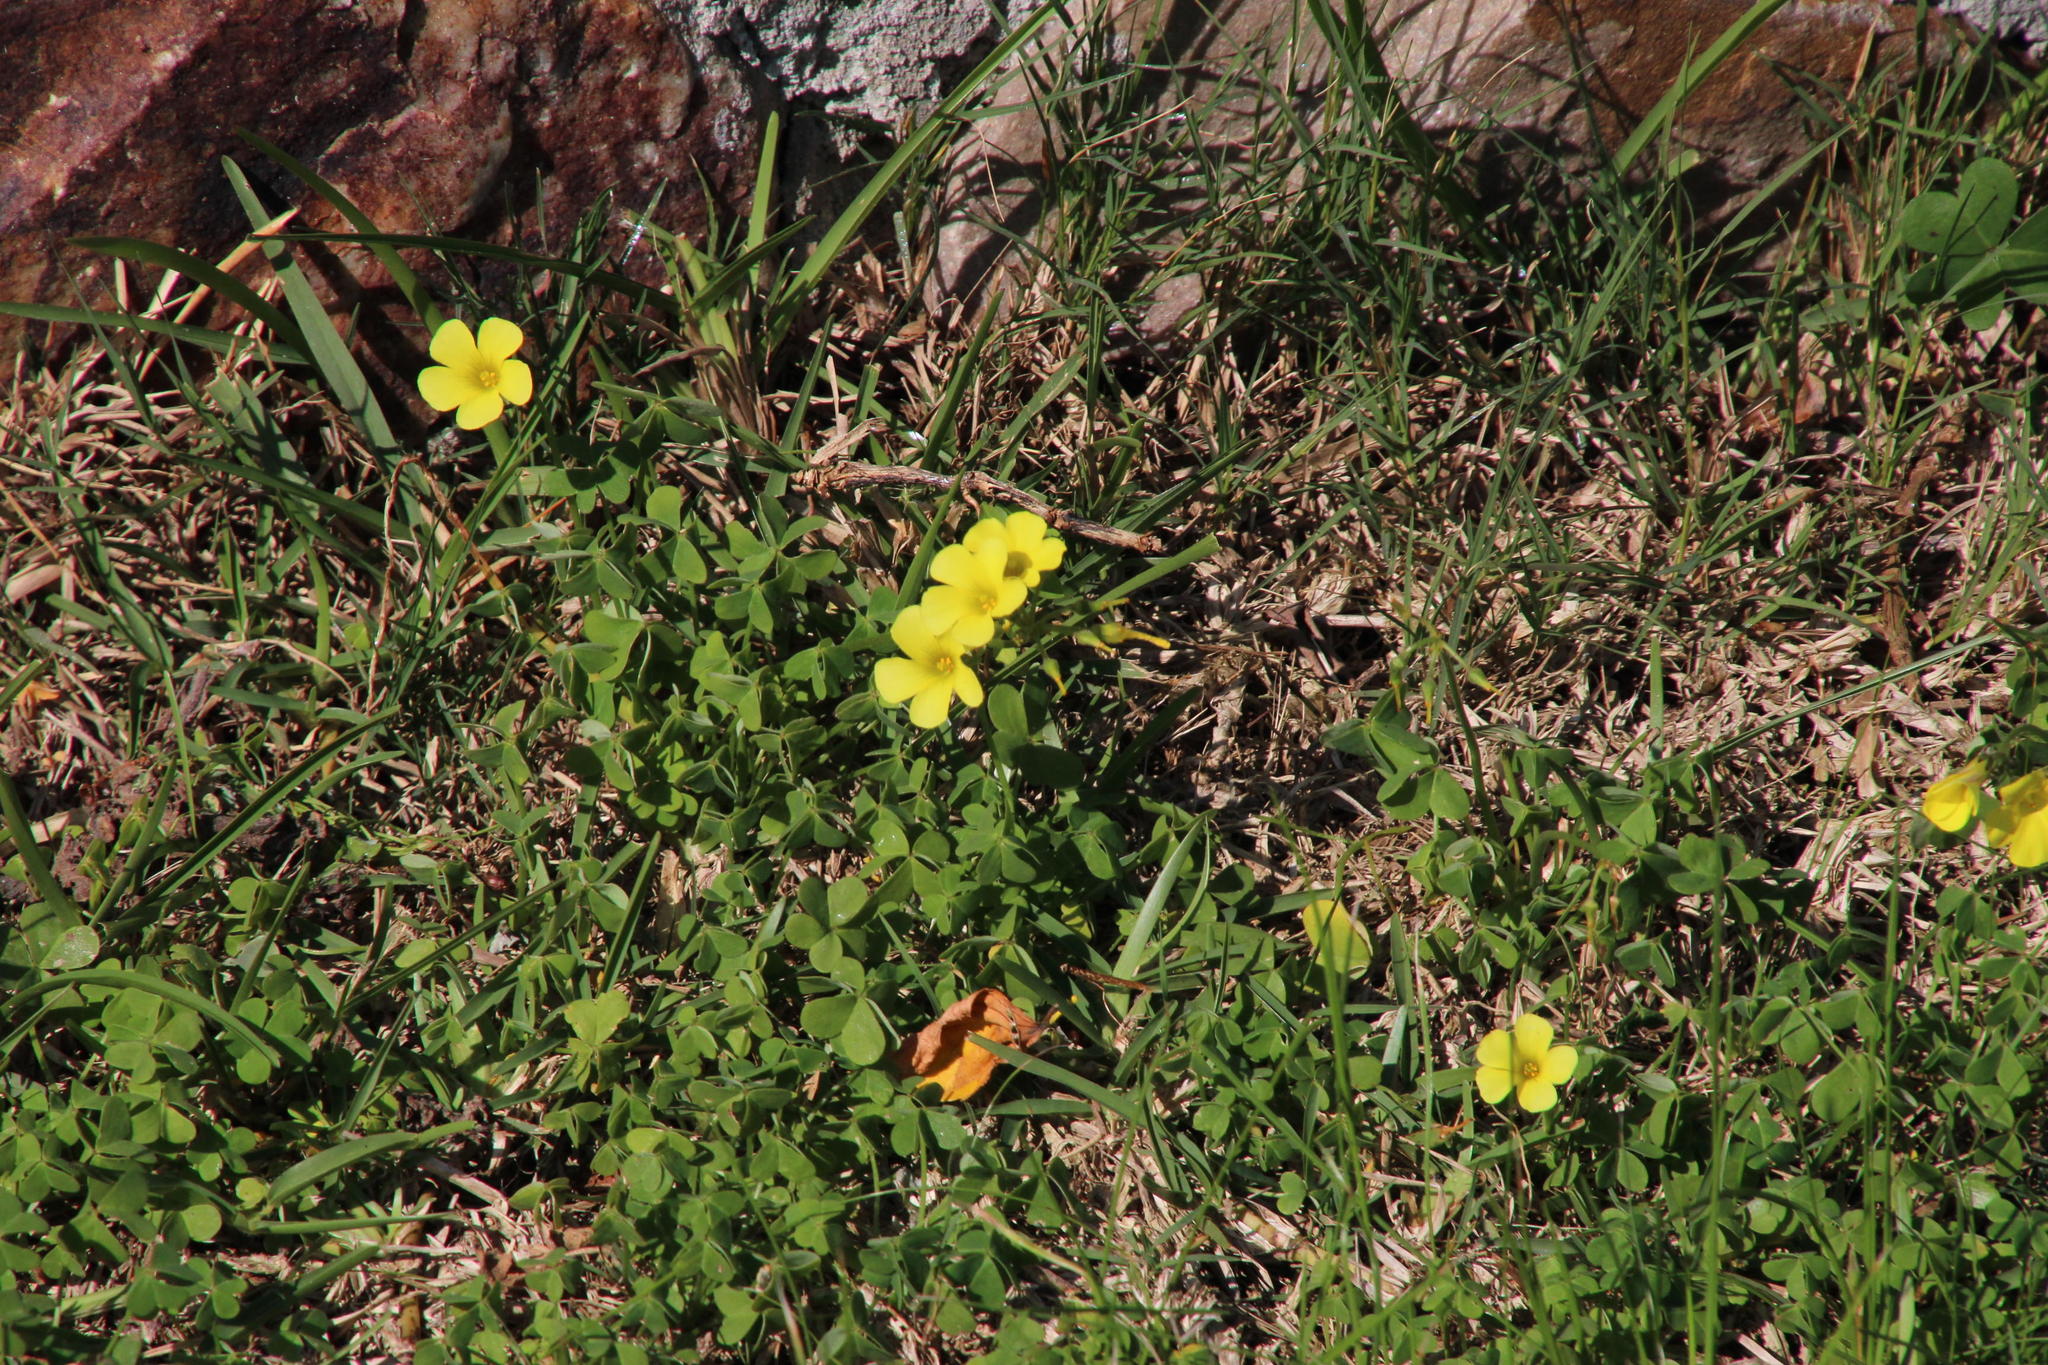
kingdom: Plantae
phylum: Tracheophyta
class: Magnoliopsida
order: Oxalidales
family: Oxalidaceae
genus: Oxalis
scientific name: Oxalis pes-caprae
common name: Bermuda-buttercup
